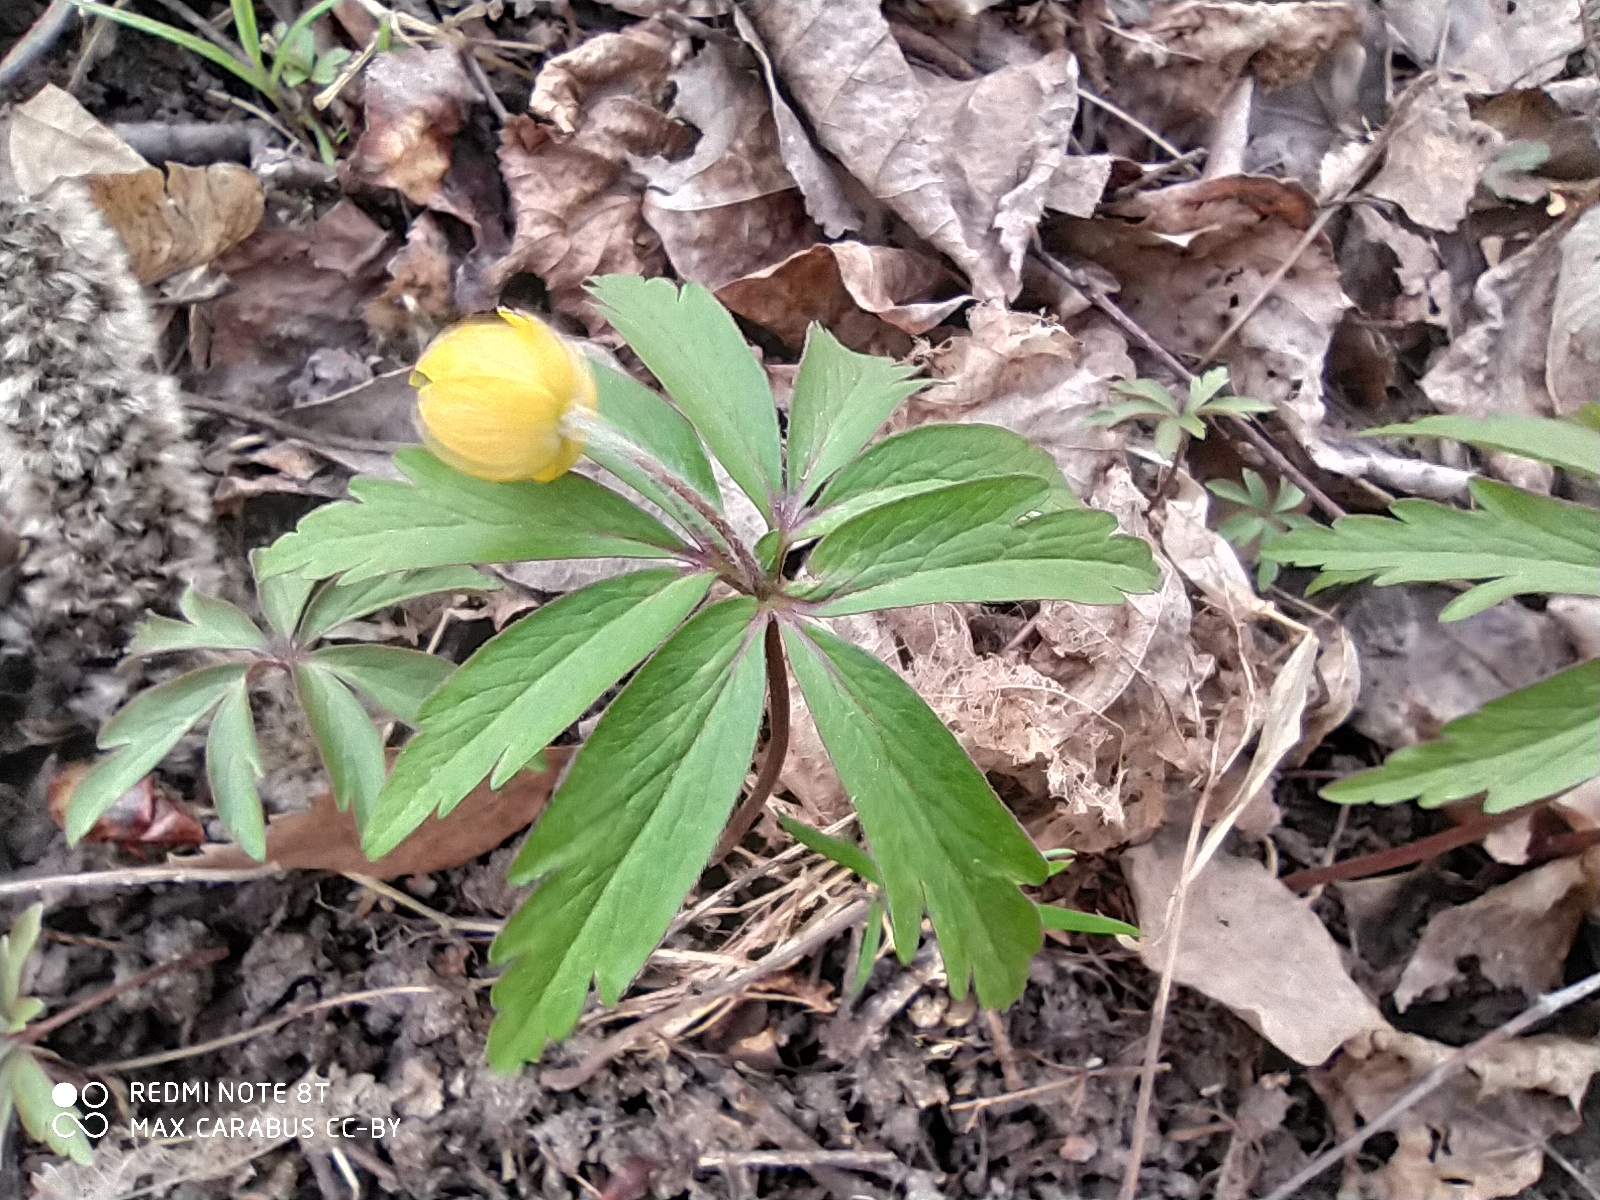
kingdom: Plantae
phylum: Tracheophyta
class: Magnoliopsida
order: Ranunculales
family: Ranunculaceae
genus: Anemone
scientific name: Anemone ranunculoides
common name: Yellow anemone
